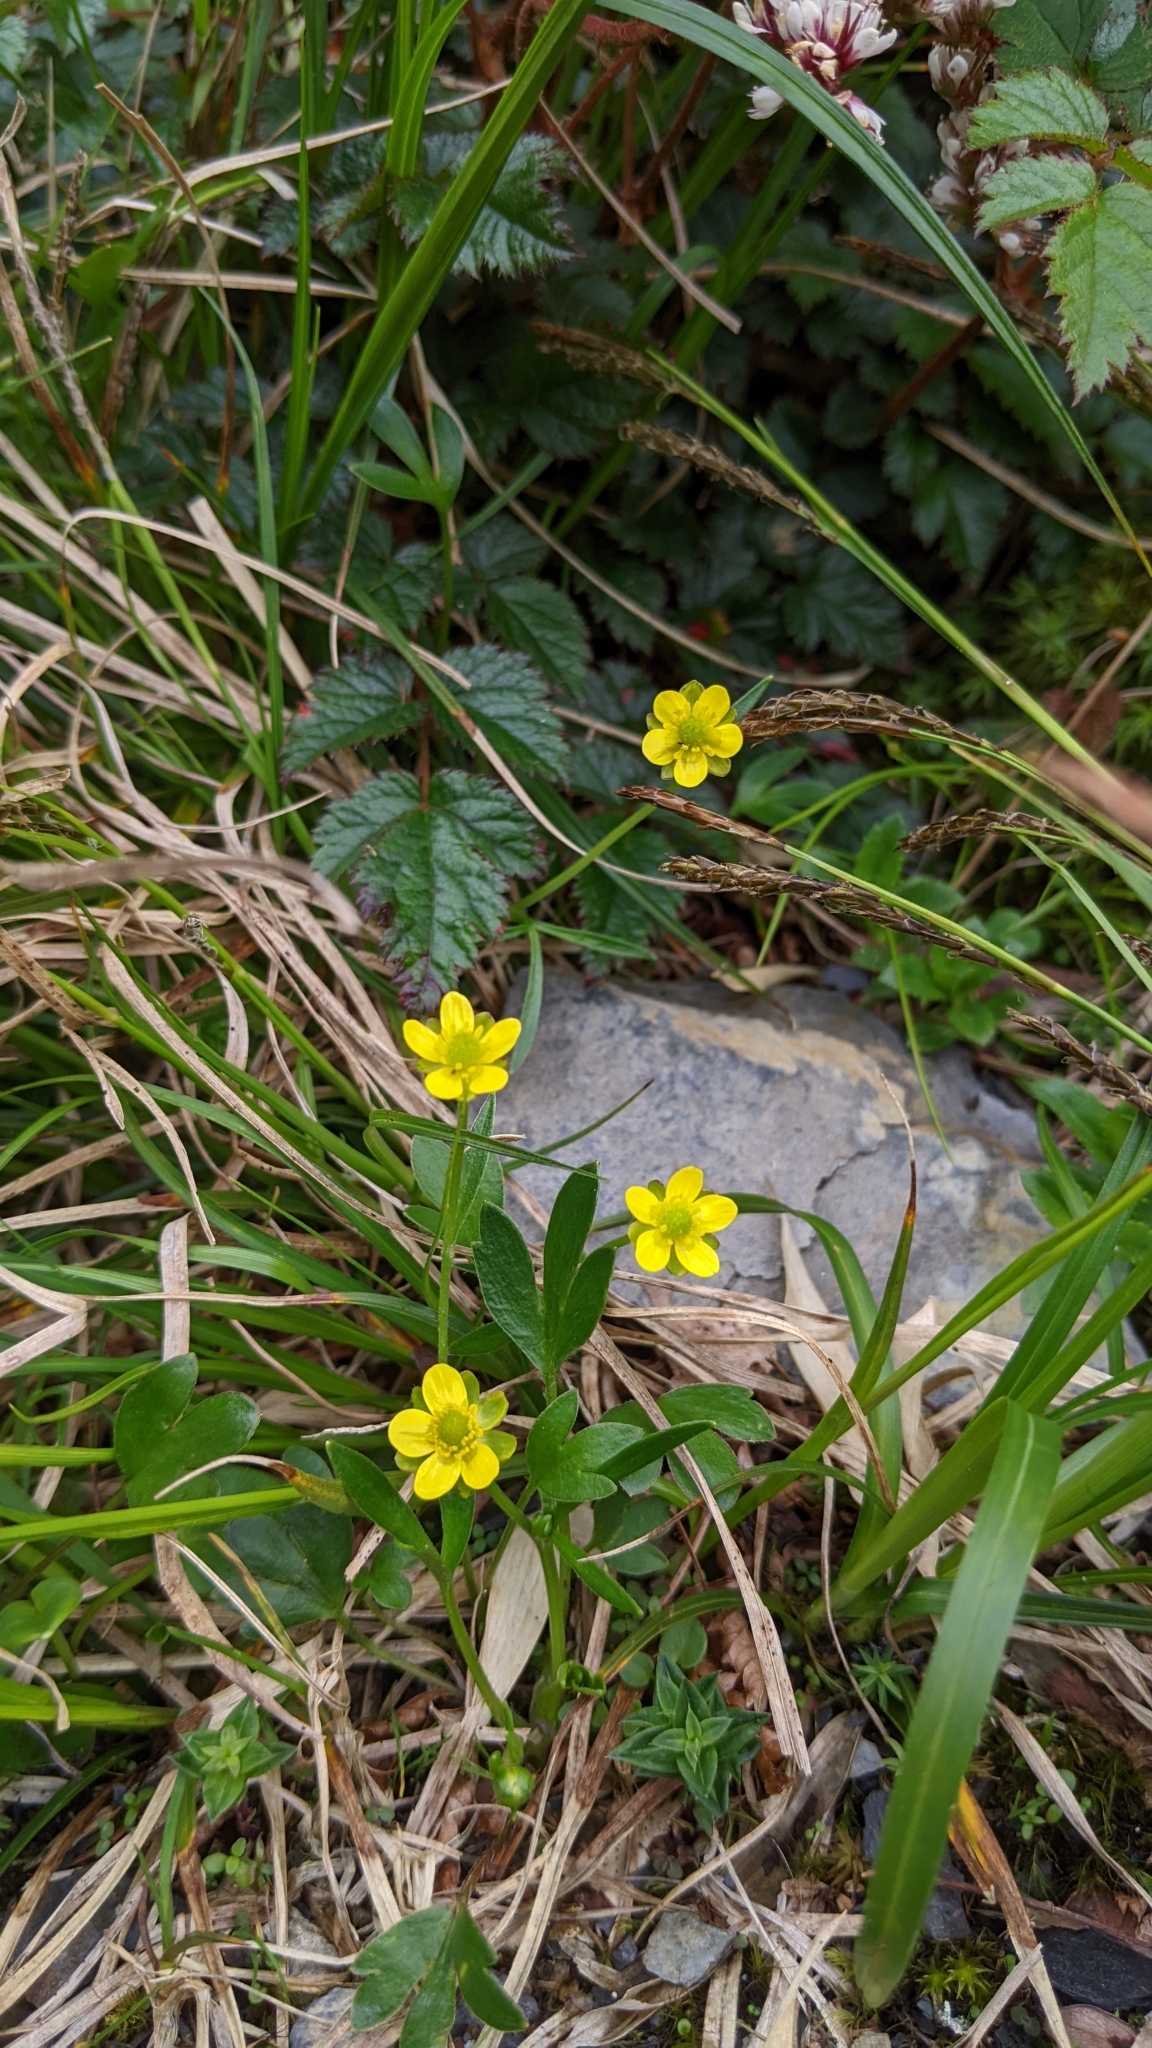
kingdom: Plantae
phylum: Tracheophyta
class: Magnoliopsida
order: Ranunculales
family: Ranunculaceae
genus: Ranunculus
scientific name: Ranunculus junipericola
